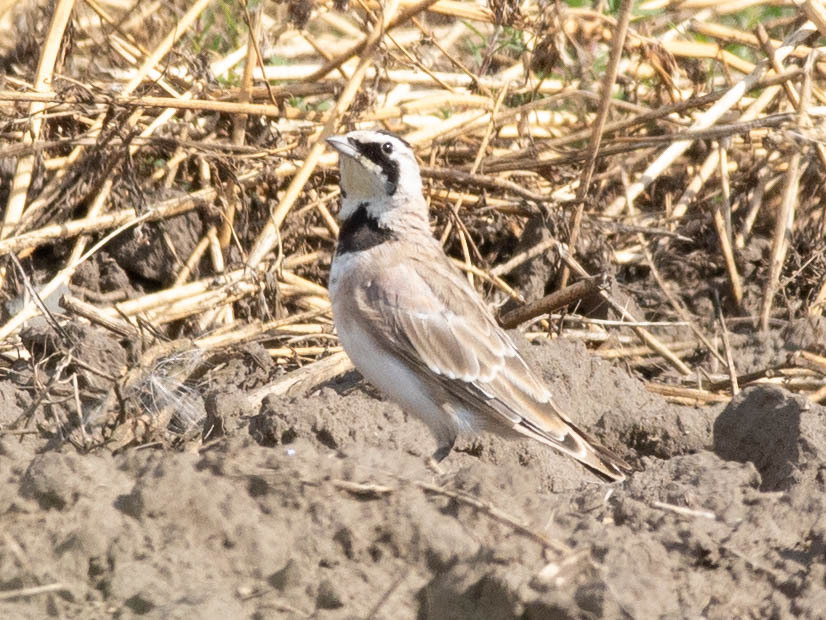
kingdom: Animalia
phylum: Chordata
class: Aves
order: Passeriformes
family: Alaudidae
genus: Eremophila
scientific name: Eremophila alpestris
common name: Horned lark
